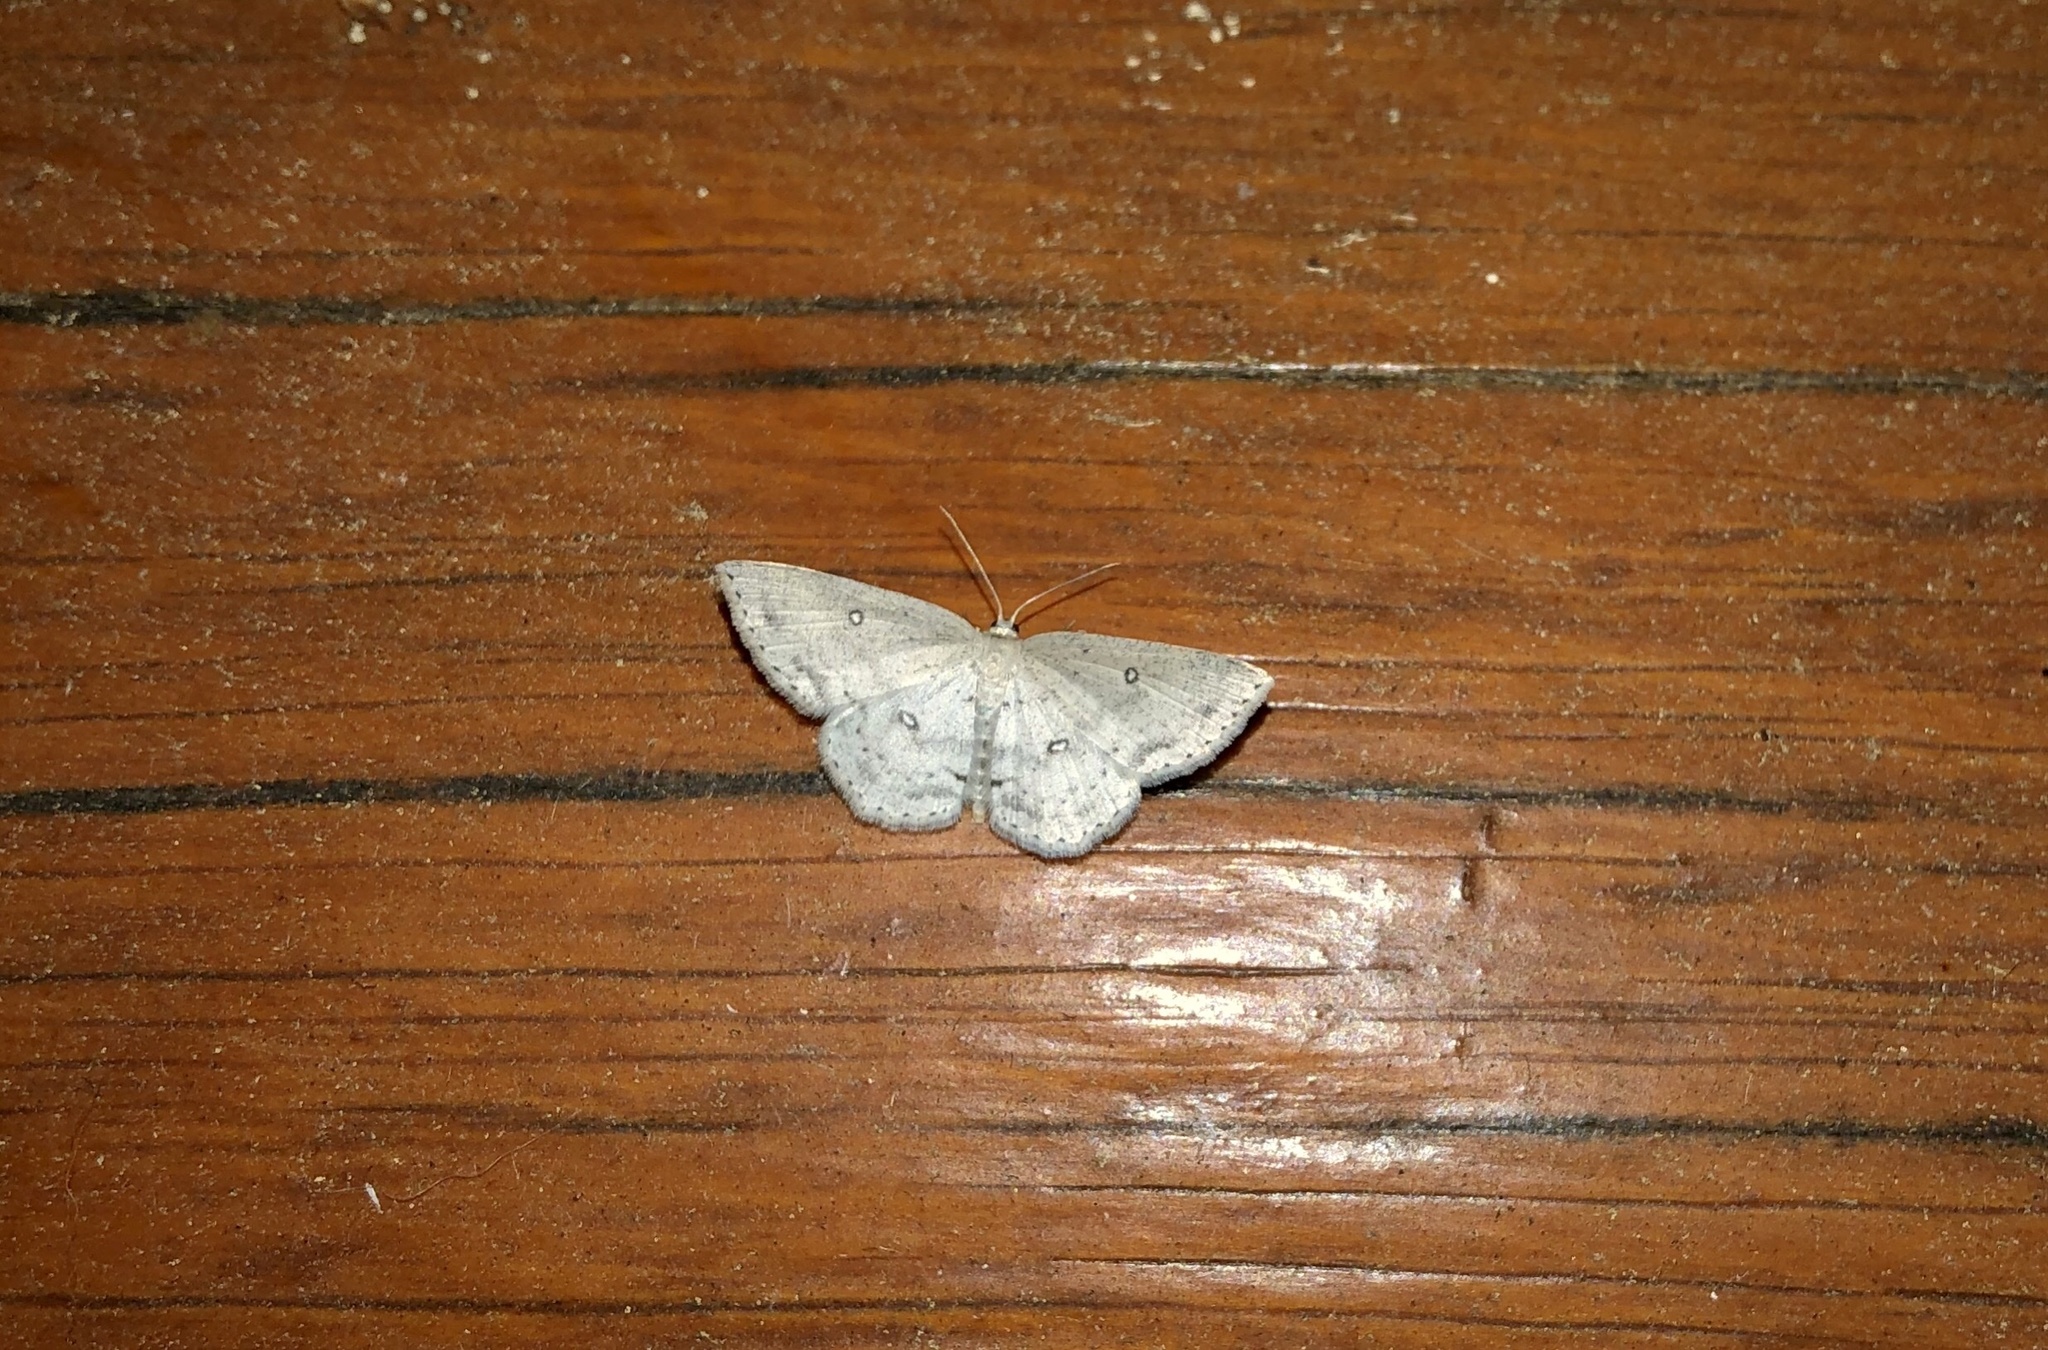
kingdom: Animalia
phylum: Arthropoda
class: Insecta
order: Lepidoptera
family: Geometridae
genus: Cyclophora
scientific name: Cyclophora pendulinaria
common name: Sweet fern geometer
